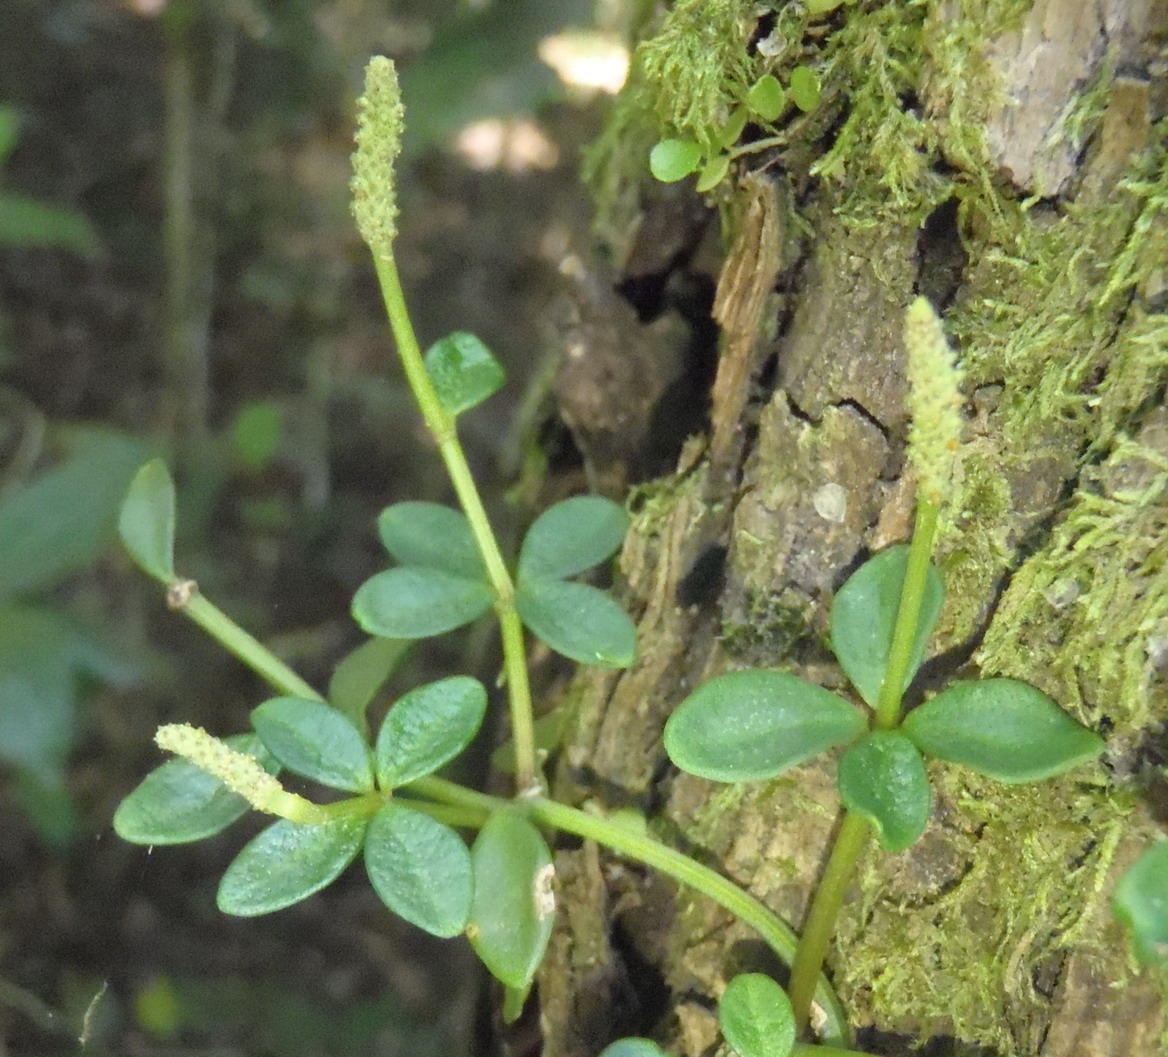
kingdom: Plantae
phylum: Tracheophyta
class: Magnoliopsida
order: Piperales
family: Piperaceae
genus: Peperomia
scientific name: Peperomia tetraphylla
